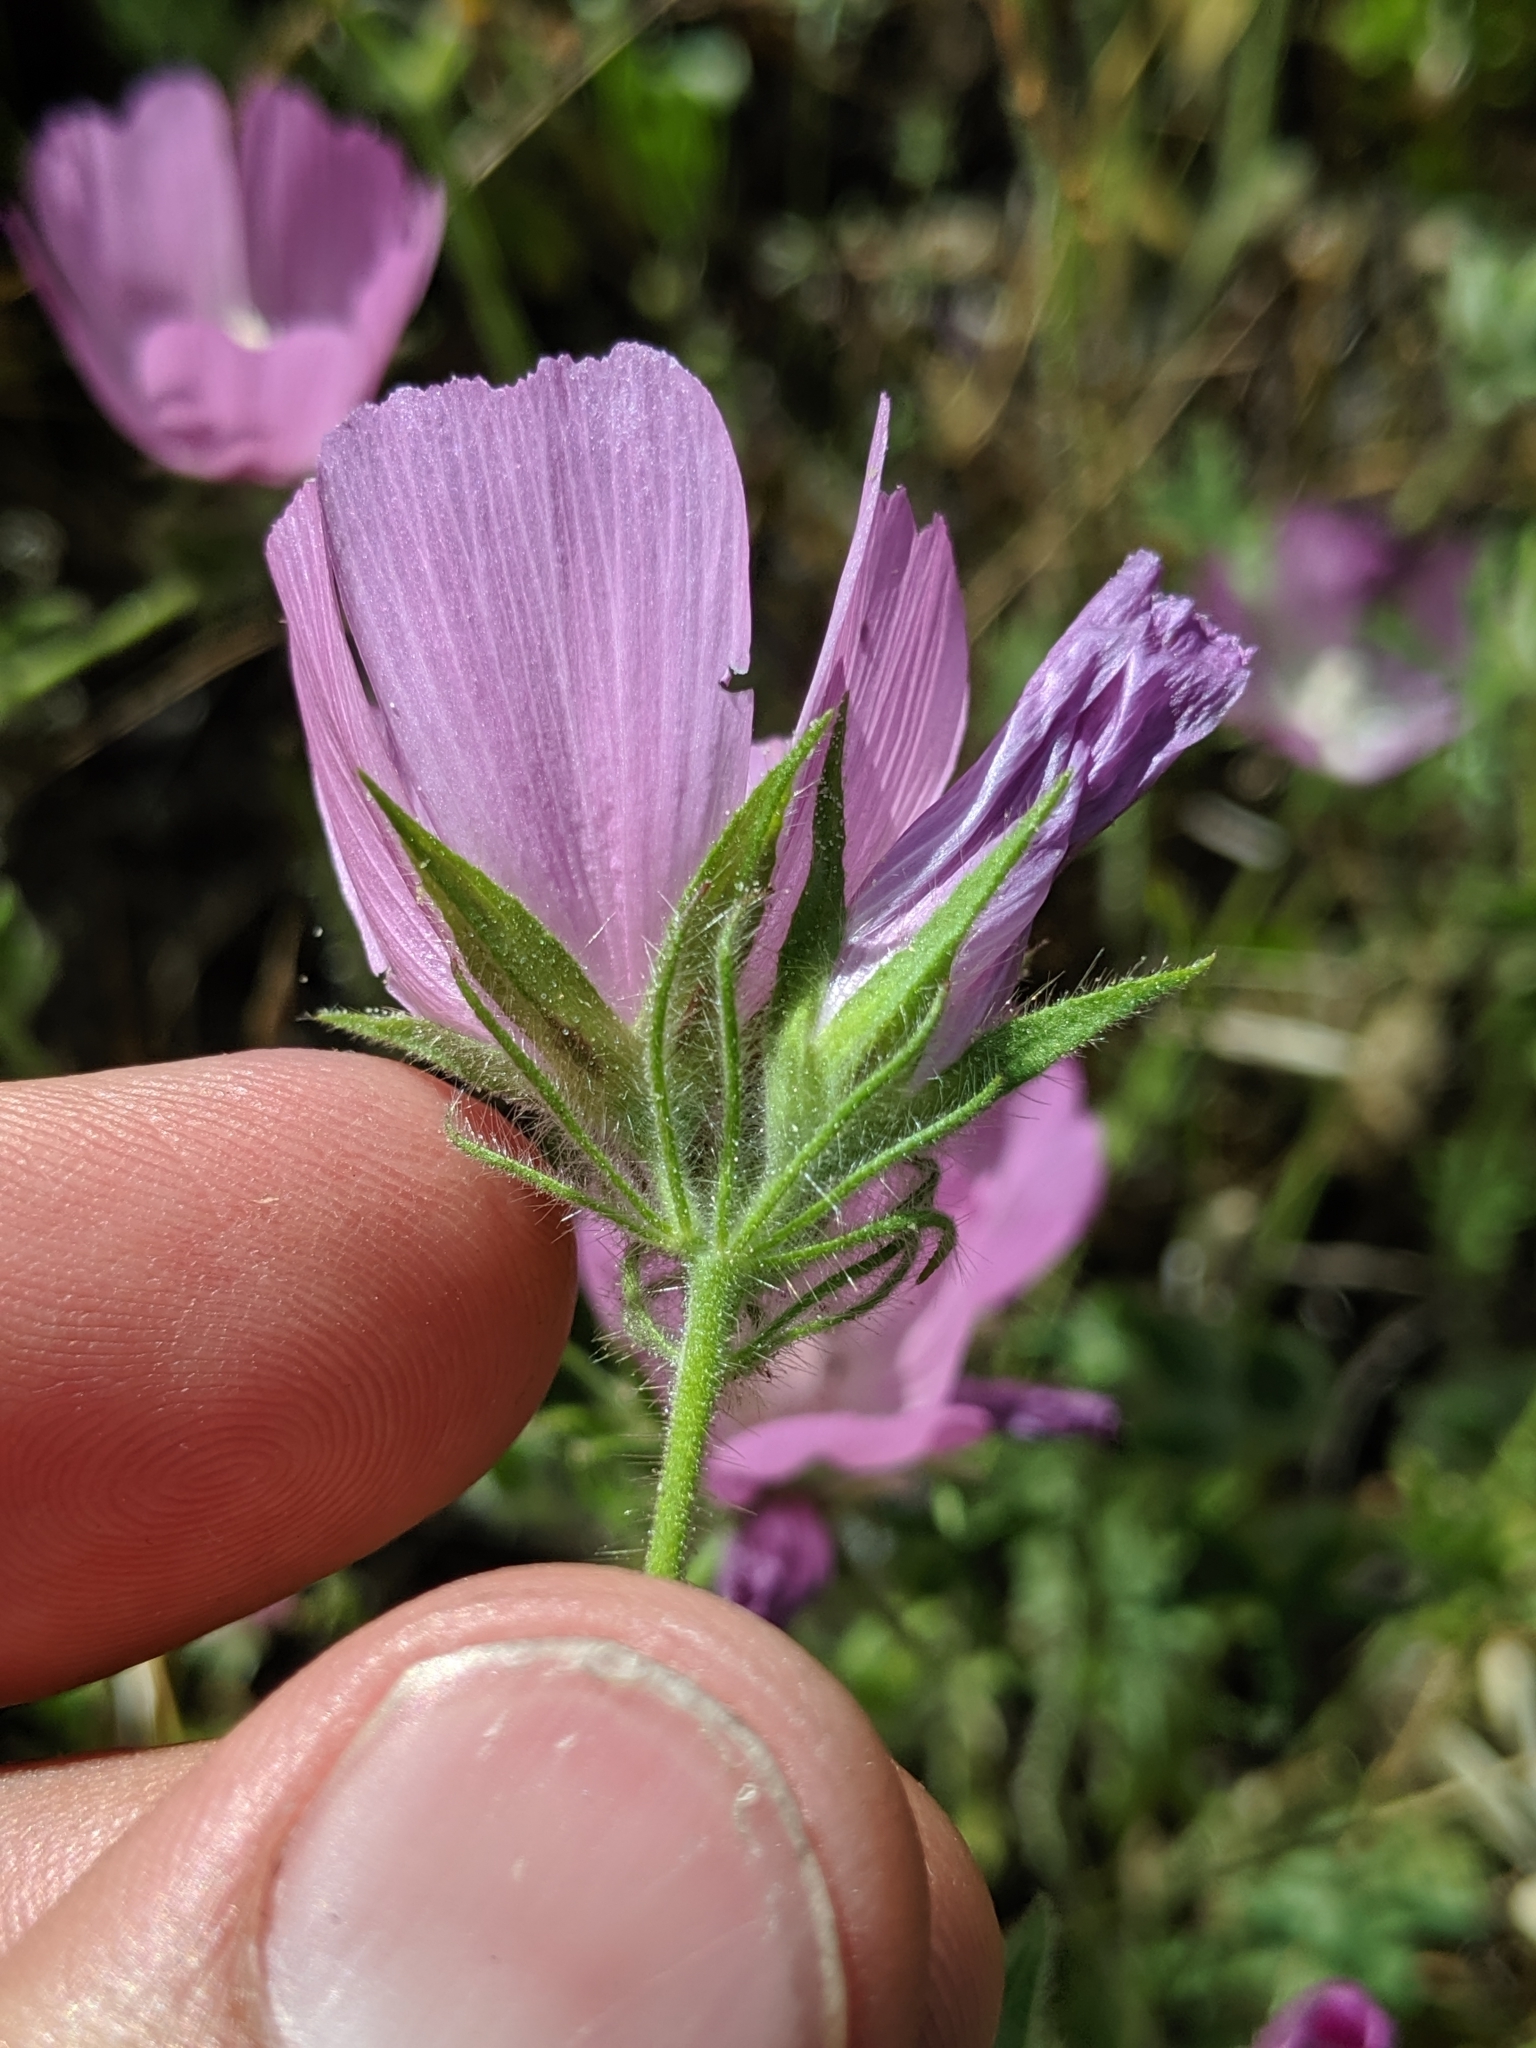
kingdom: Plantae
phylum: Tracheophyta
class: Magnoliopsida
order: Malvales
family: Malvaceae
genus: Sidalcea
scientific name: Sidalcea diploscypha
